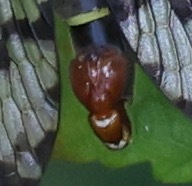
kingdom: Animalia
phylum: Arthropoda
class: Insecta
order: Mecoptera
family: Panorpidae
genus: Panorpa
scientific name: Panorpa communis
